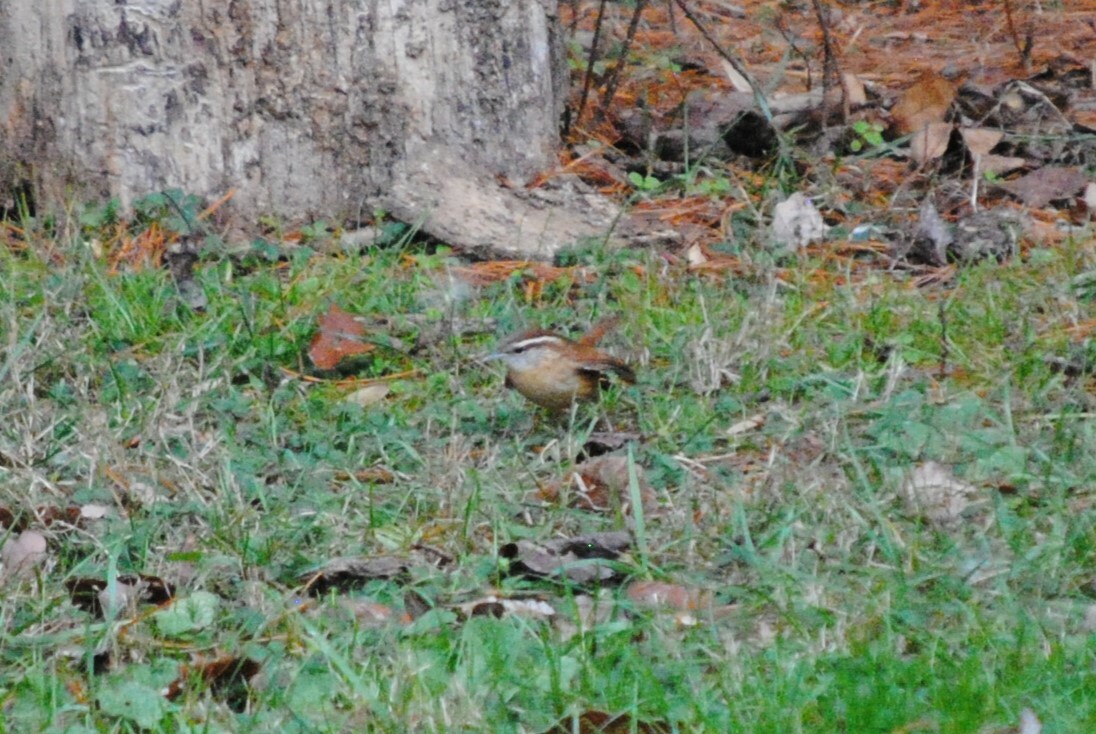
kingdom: Animalia
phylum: Chordata
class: Aves
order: Passeriformes
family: Troglodytidae
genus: Thryothorus
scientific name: Thryothorus ludovicianus
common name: Carolina wren
